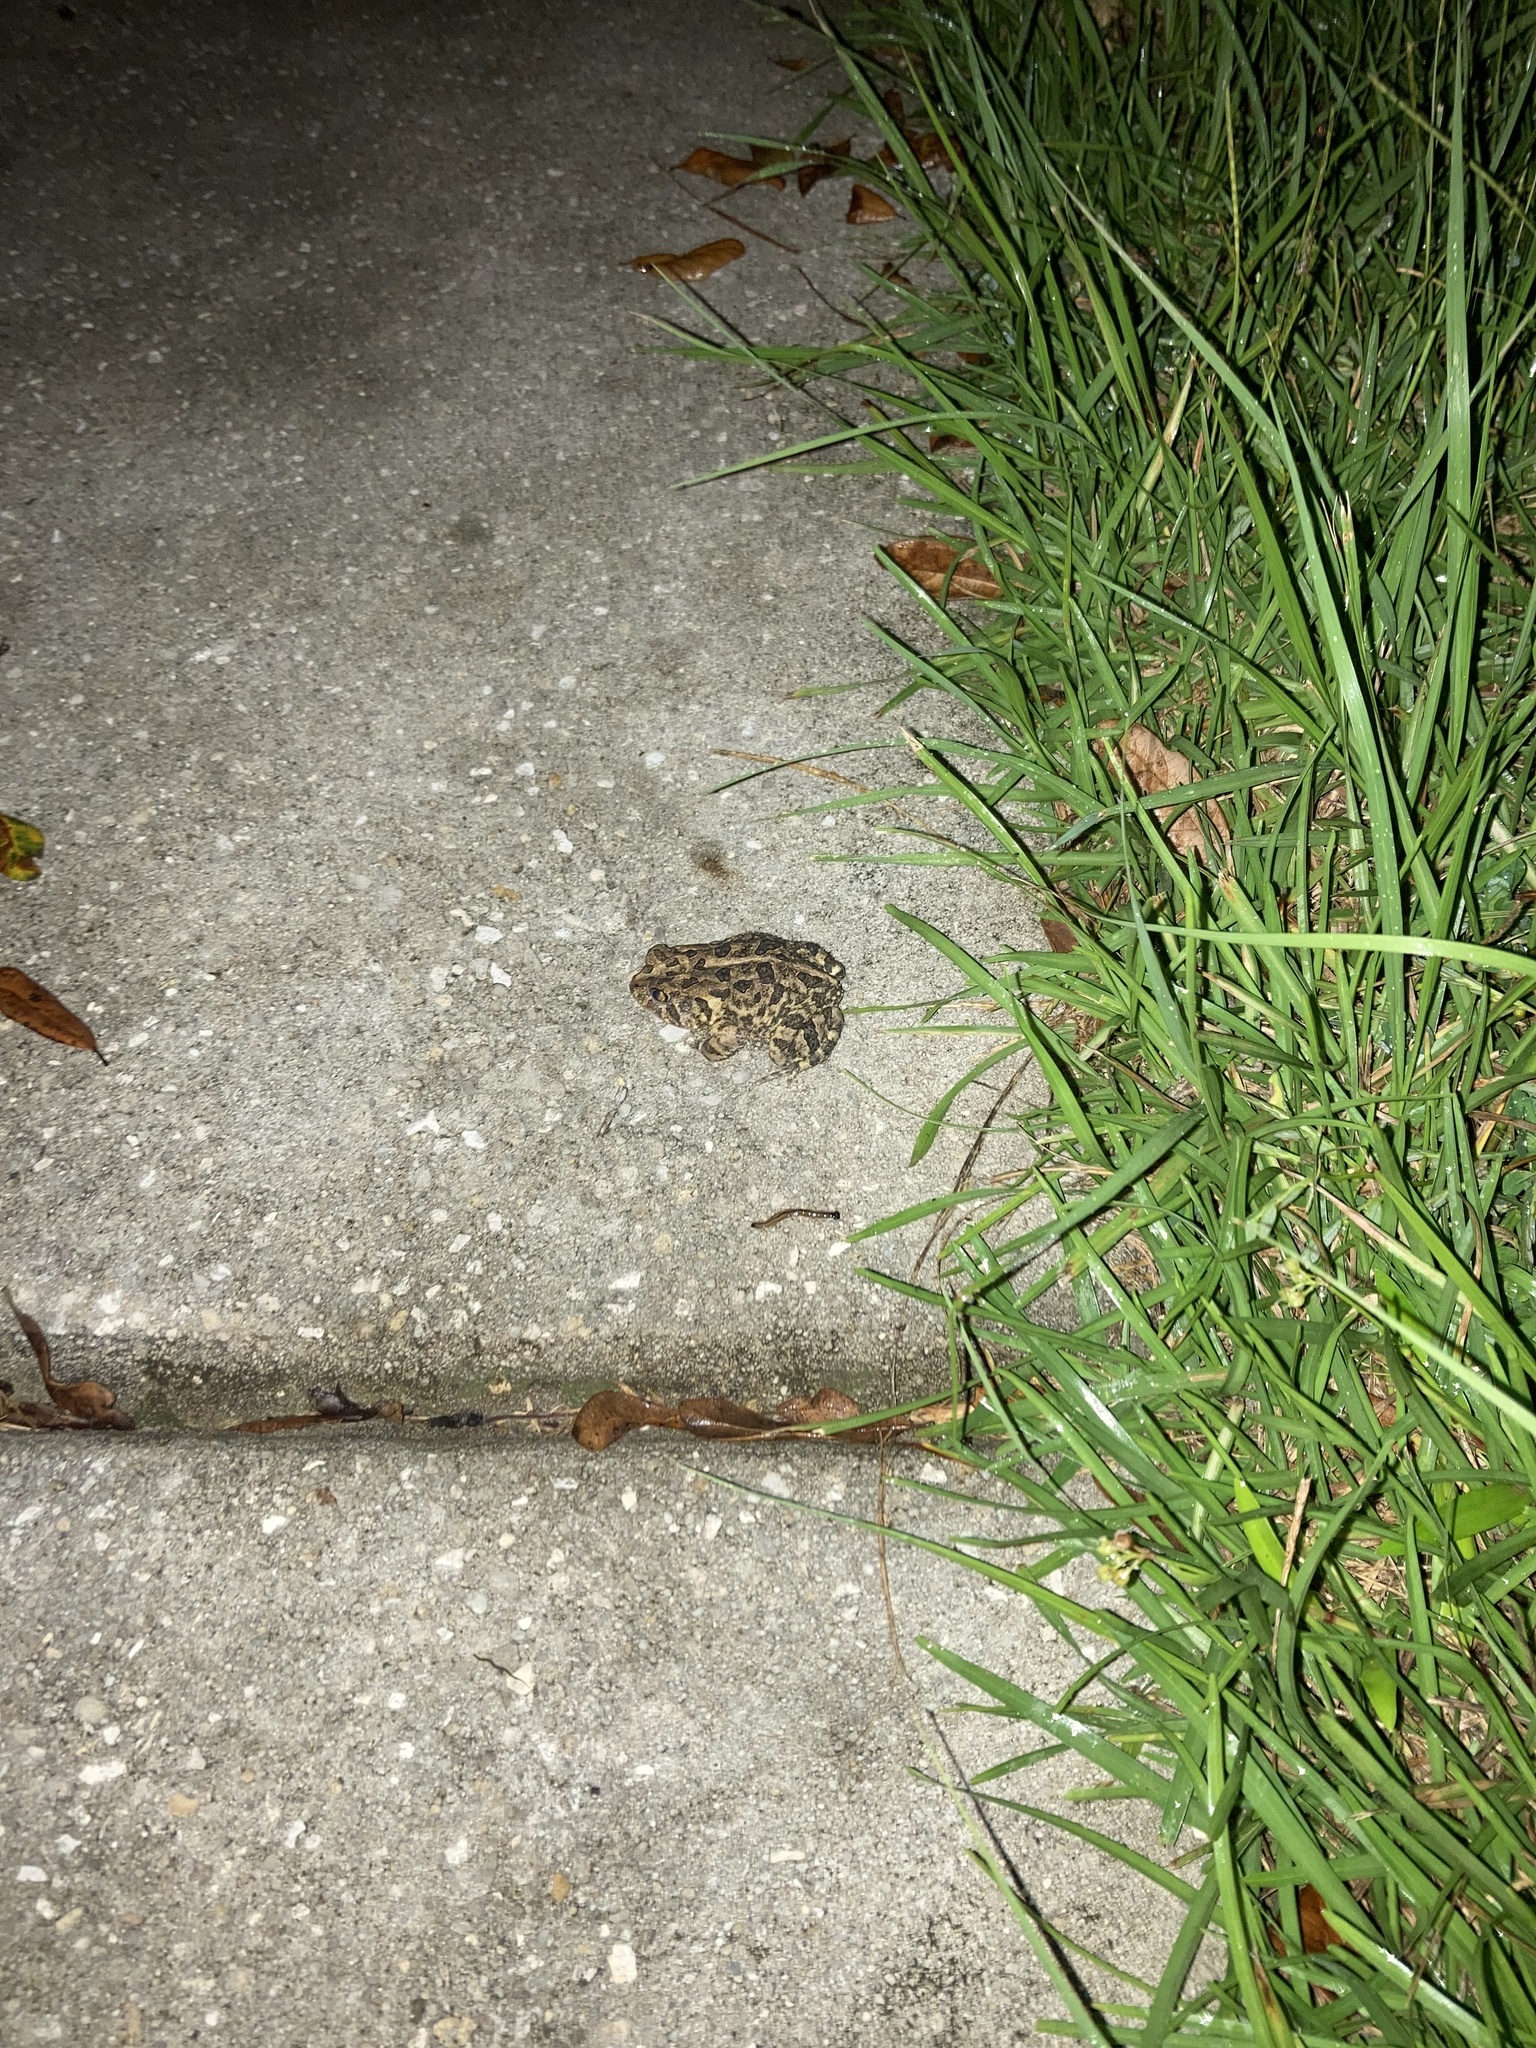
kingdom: Animalia
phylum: Chordata
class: Amphibia
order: Anura
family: Bufonidae
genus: Anaxyrus
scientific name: Anaxyrus terrestris
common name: Southern toad
